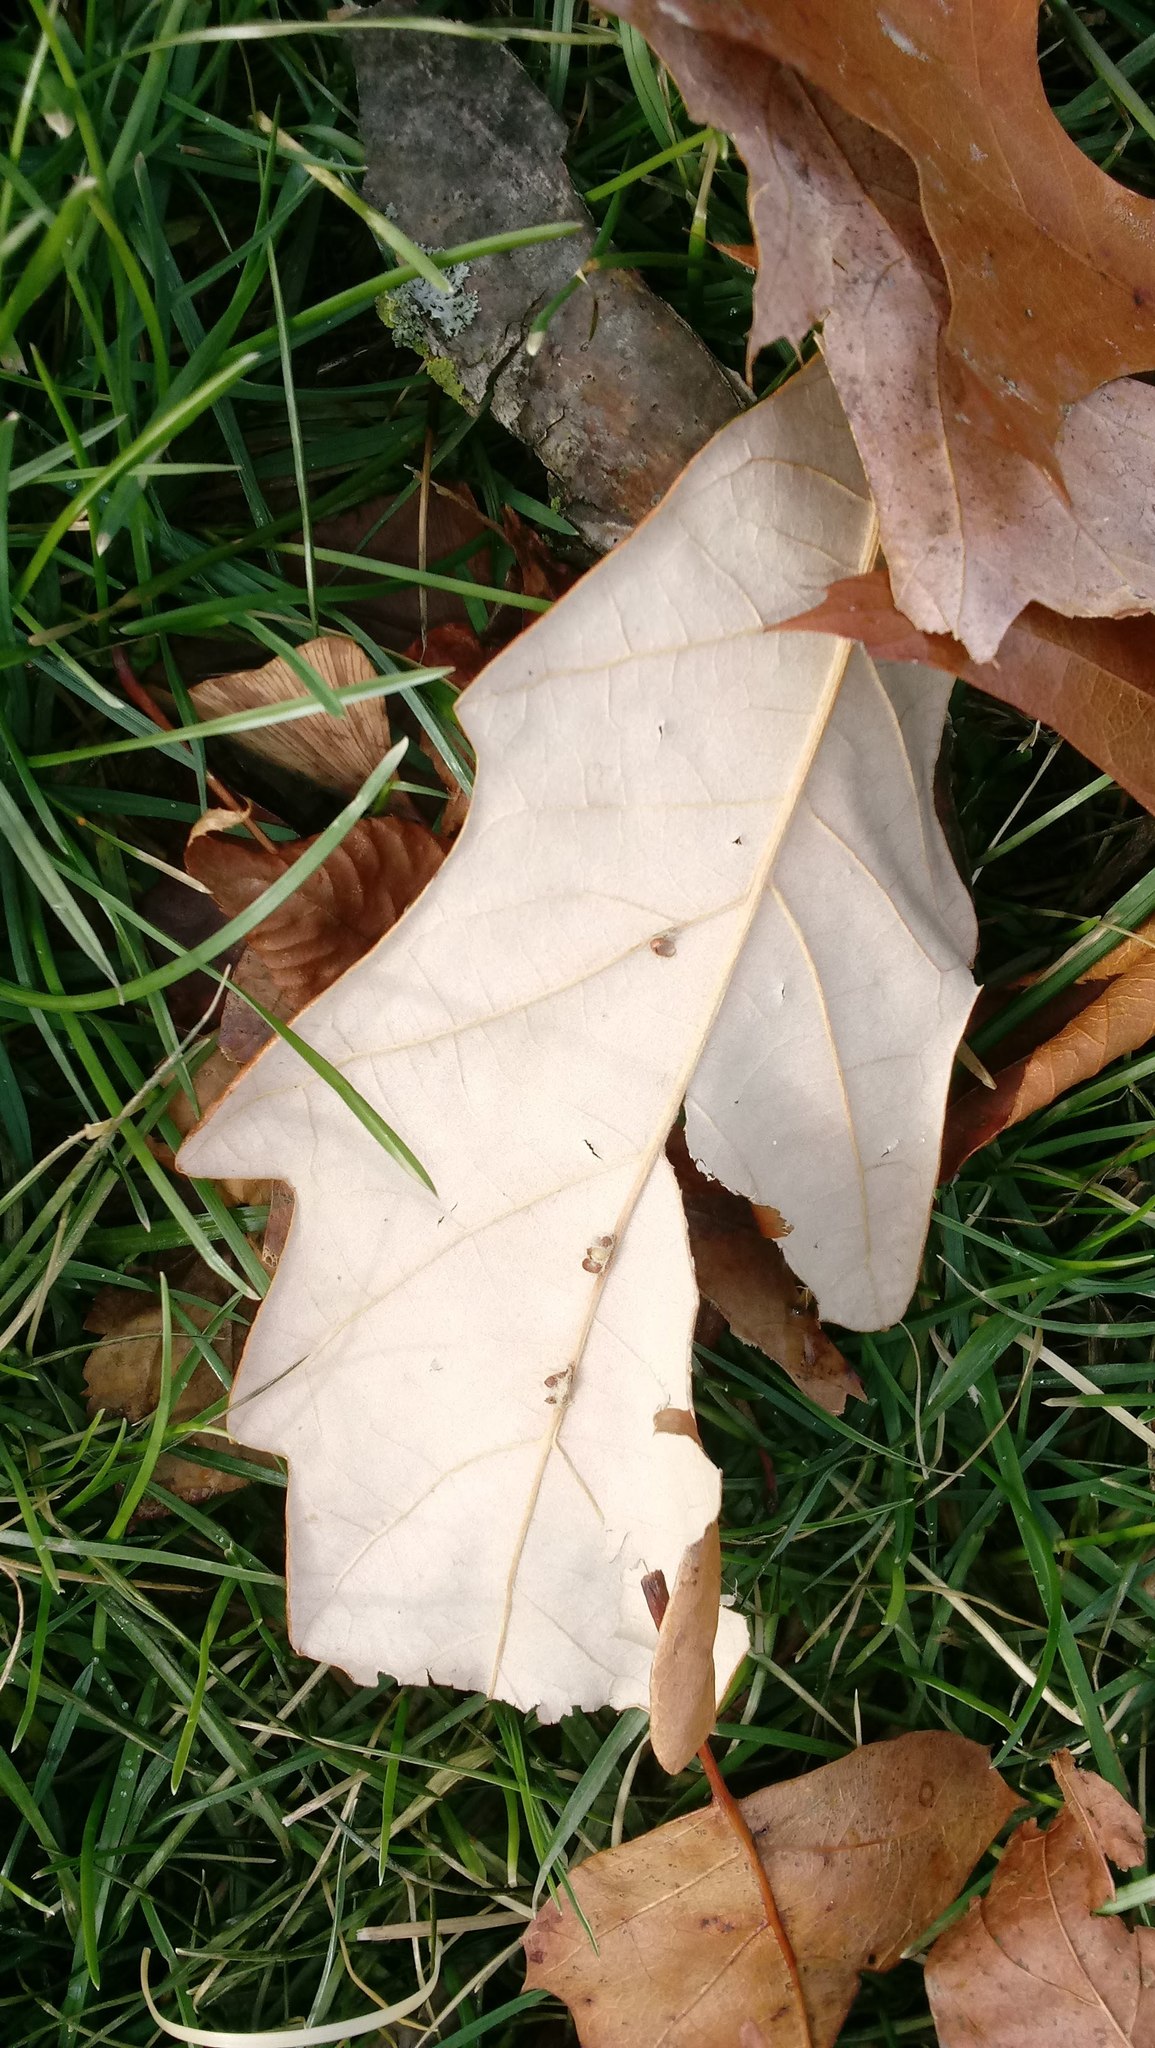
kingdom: Animalia
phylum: Arthropoda
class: Insecta
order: Hymenoptera
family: Cynipidae
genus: Andricus
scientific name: Andricus Druon ignotum
